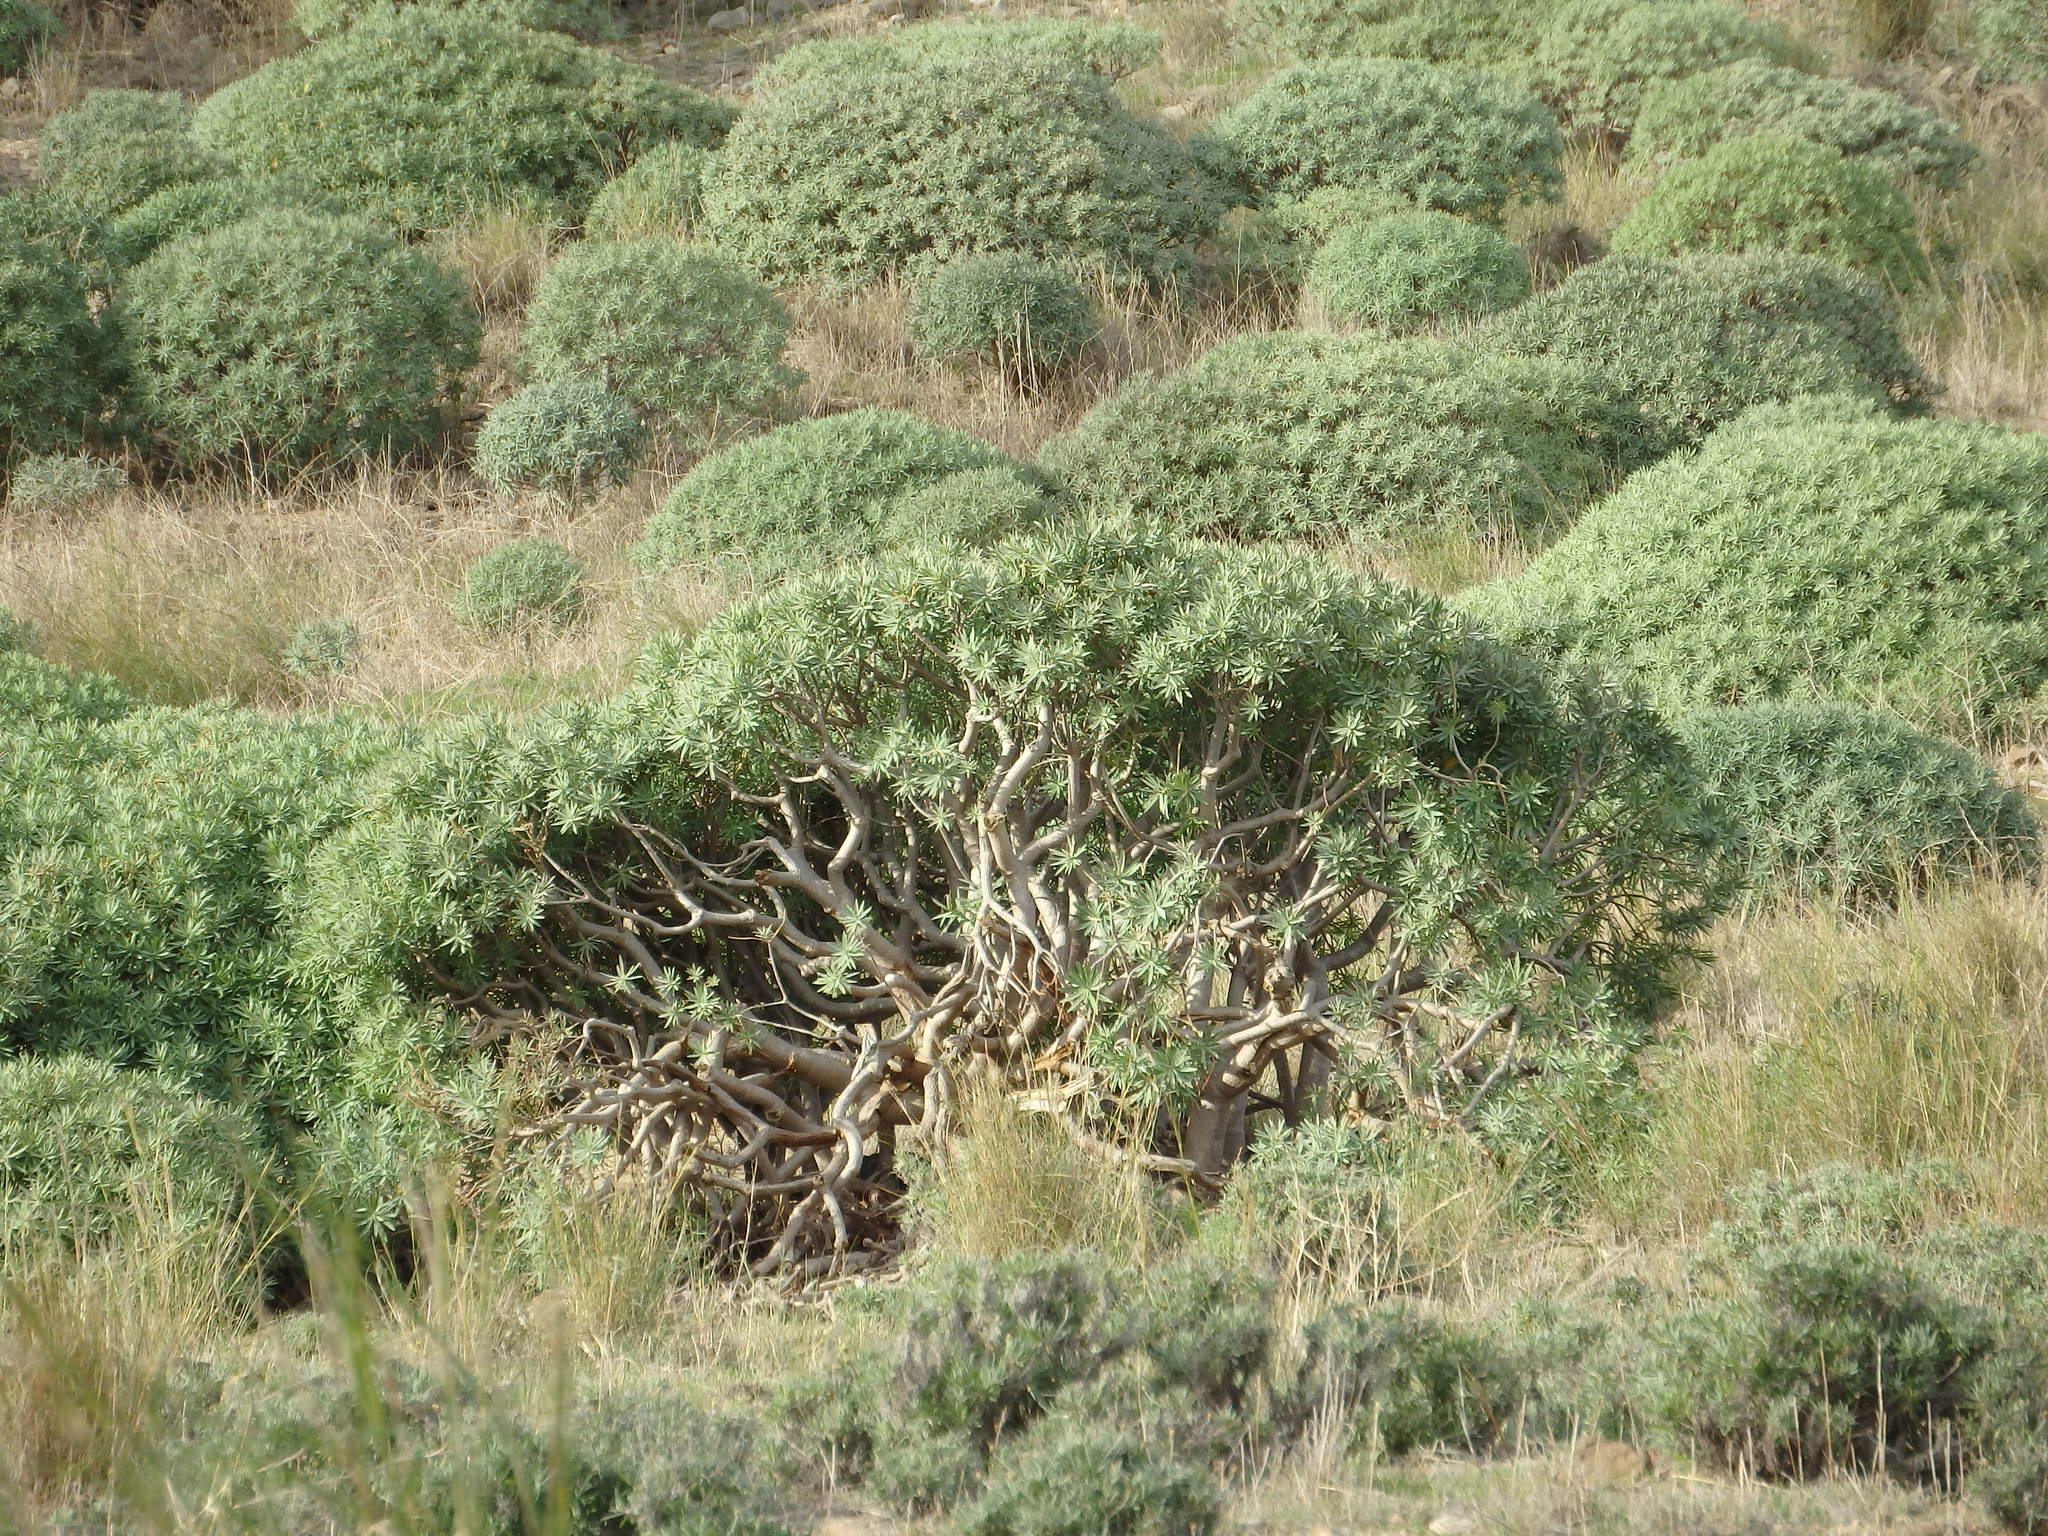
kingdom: Plantae
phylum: Tracheophyta
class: Magnoliopsida
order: Malpighiales
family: Euphorbiaceae
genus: Euphorbia
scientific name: Euphorbia piscatoria
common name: Fish-stunning spurge
